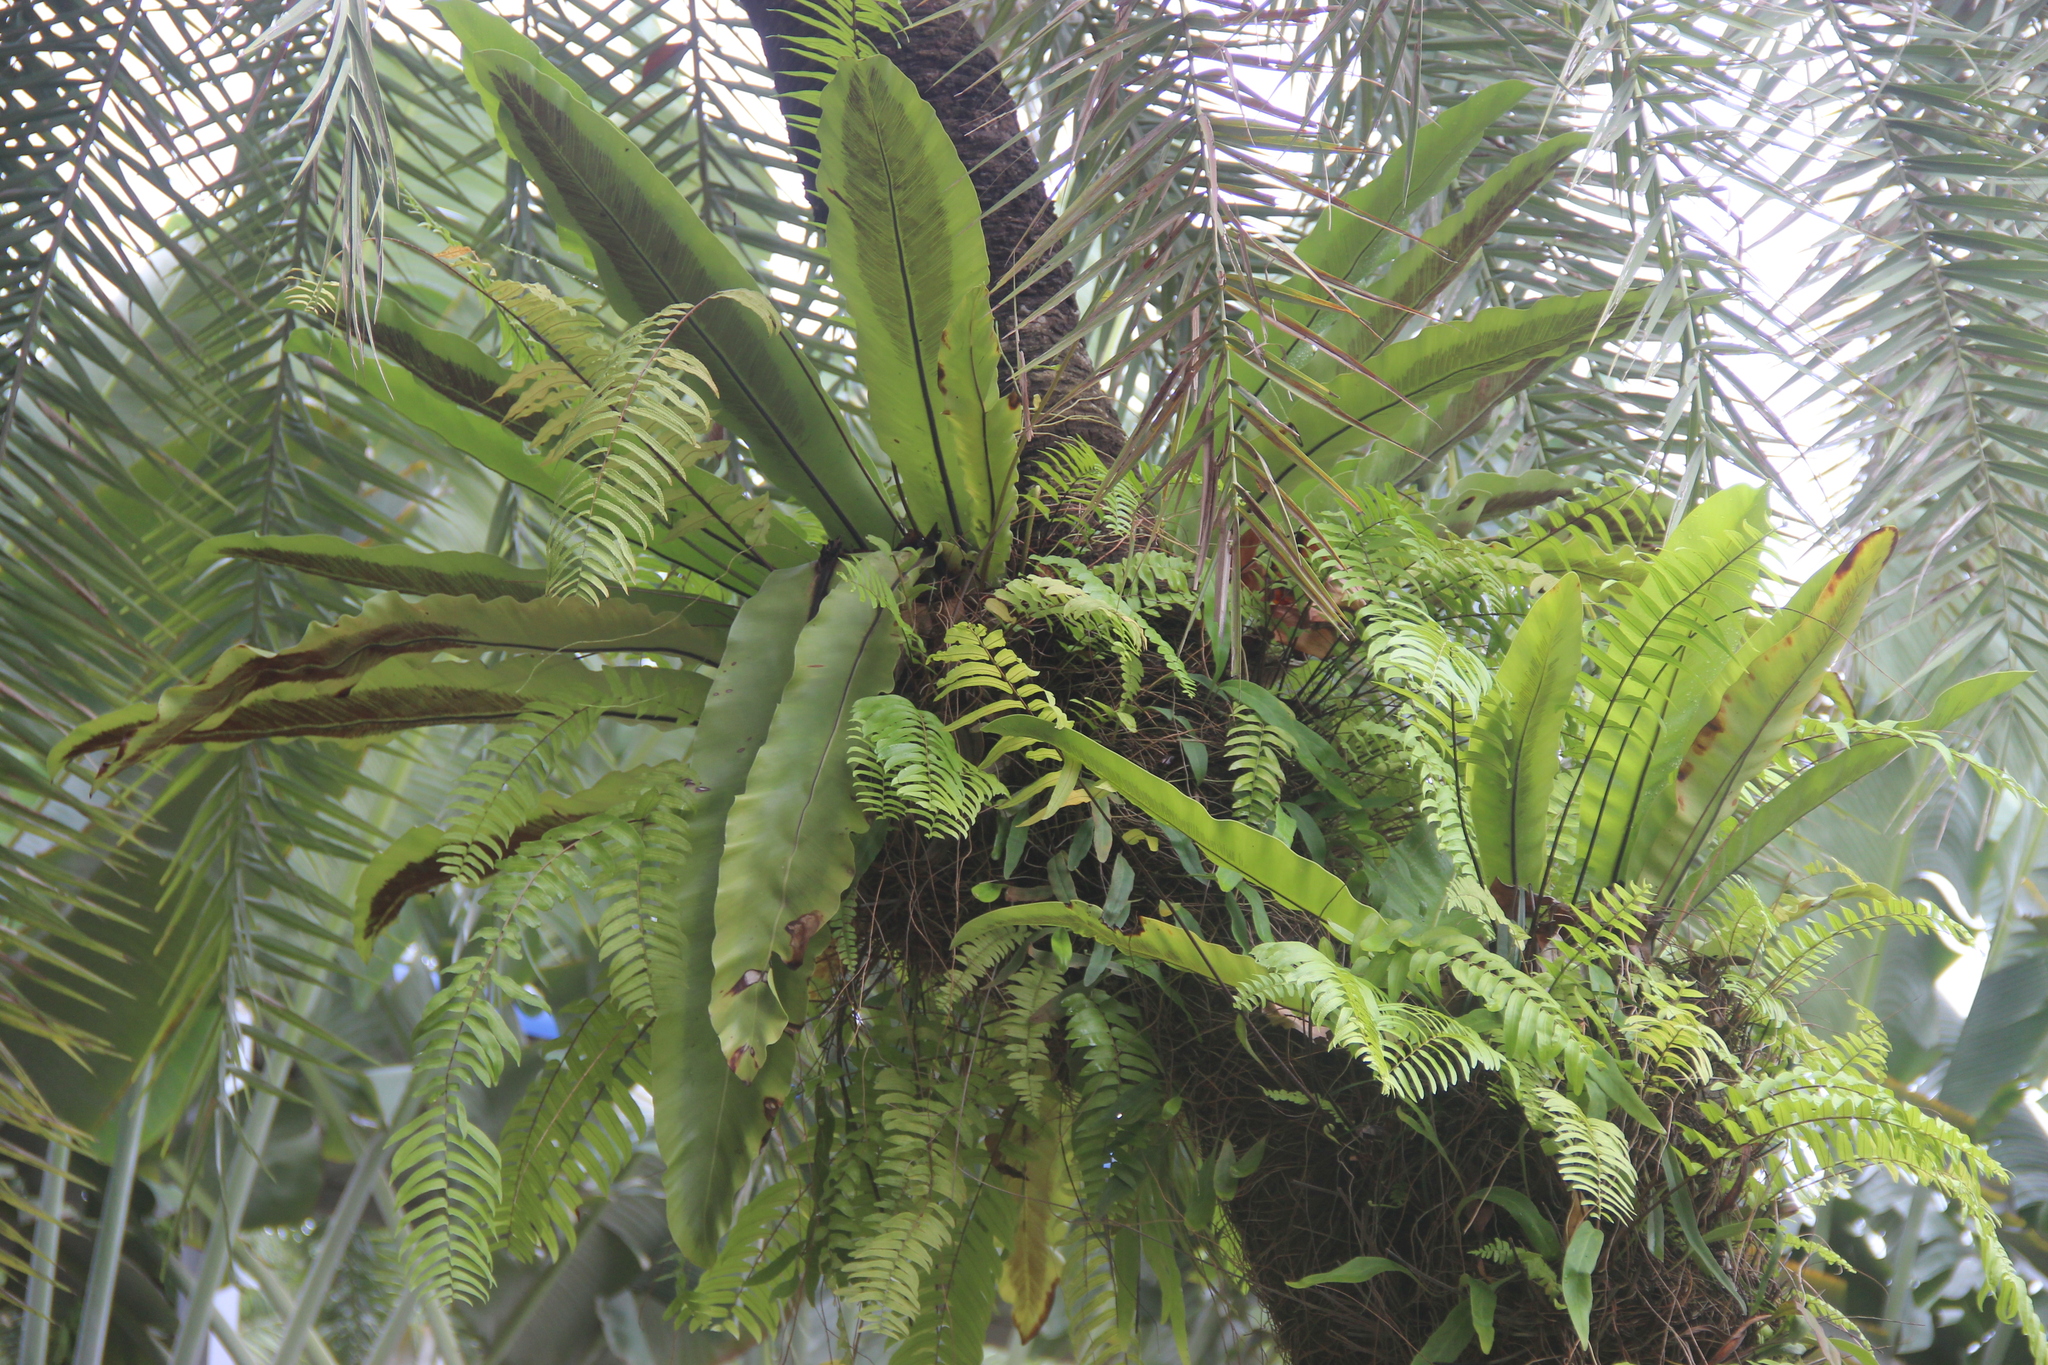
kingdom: Plantae
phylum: Tracheophyta
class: Polypodiopsida
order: Polypodiales
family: Aspleniaceae
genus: Asplenium
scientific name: Asplenium nidus
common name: Bird's-nest fern
